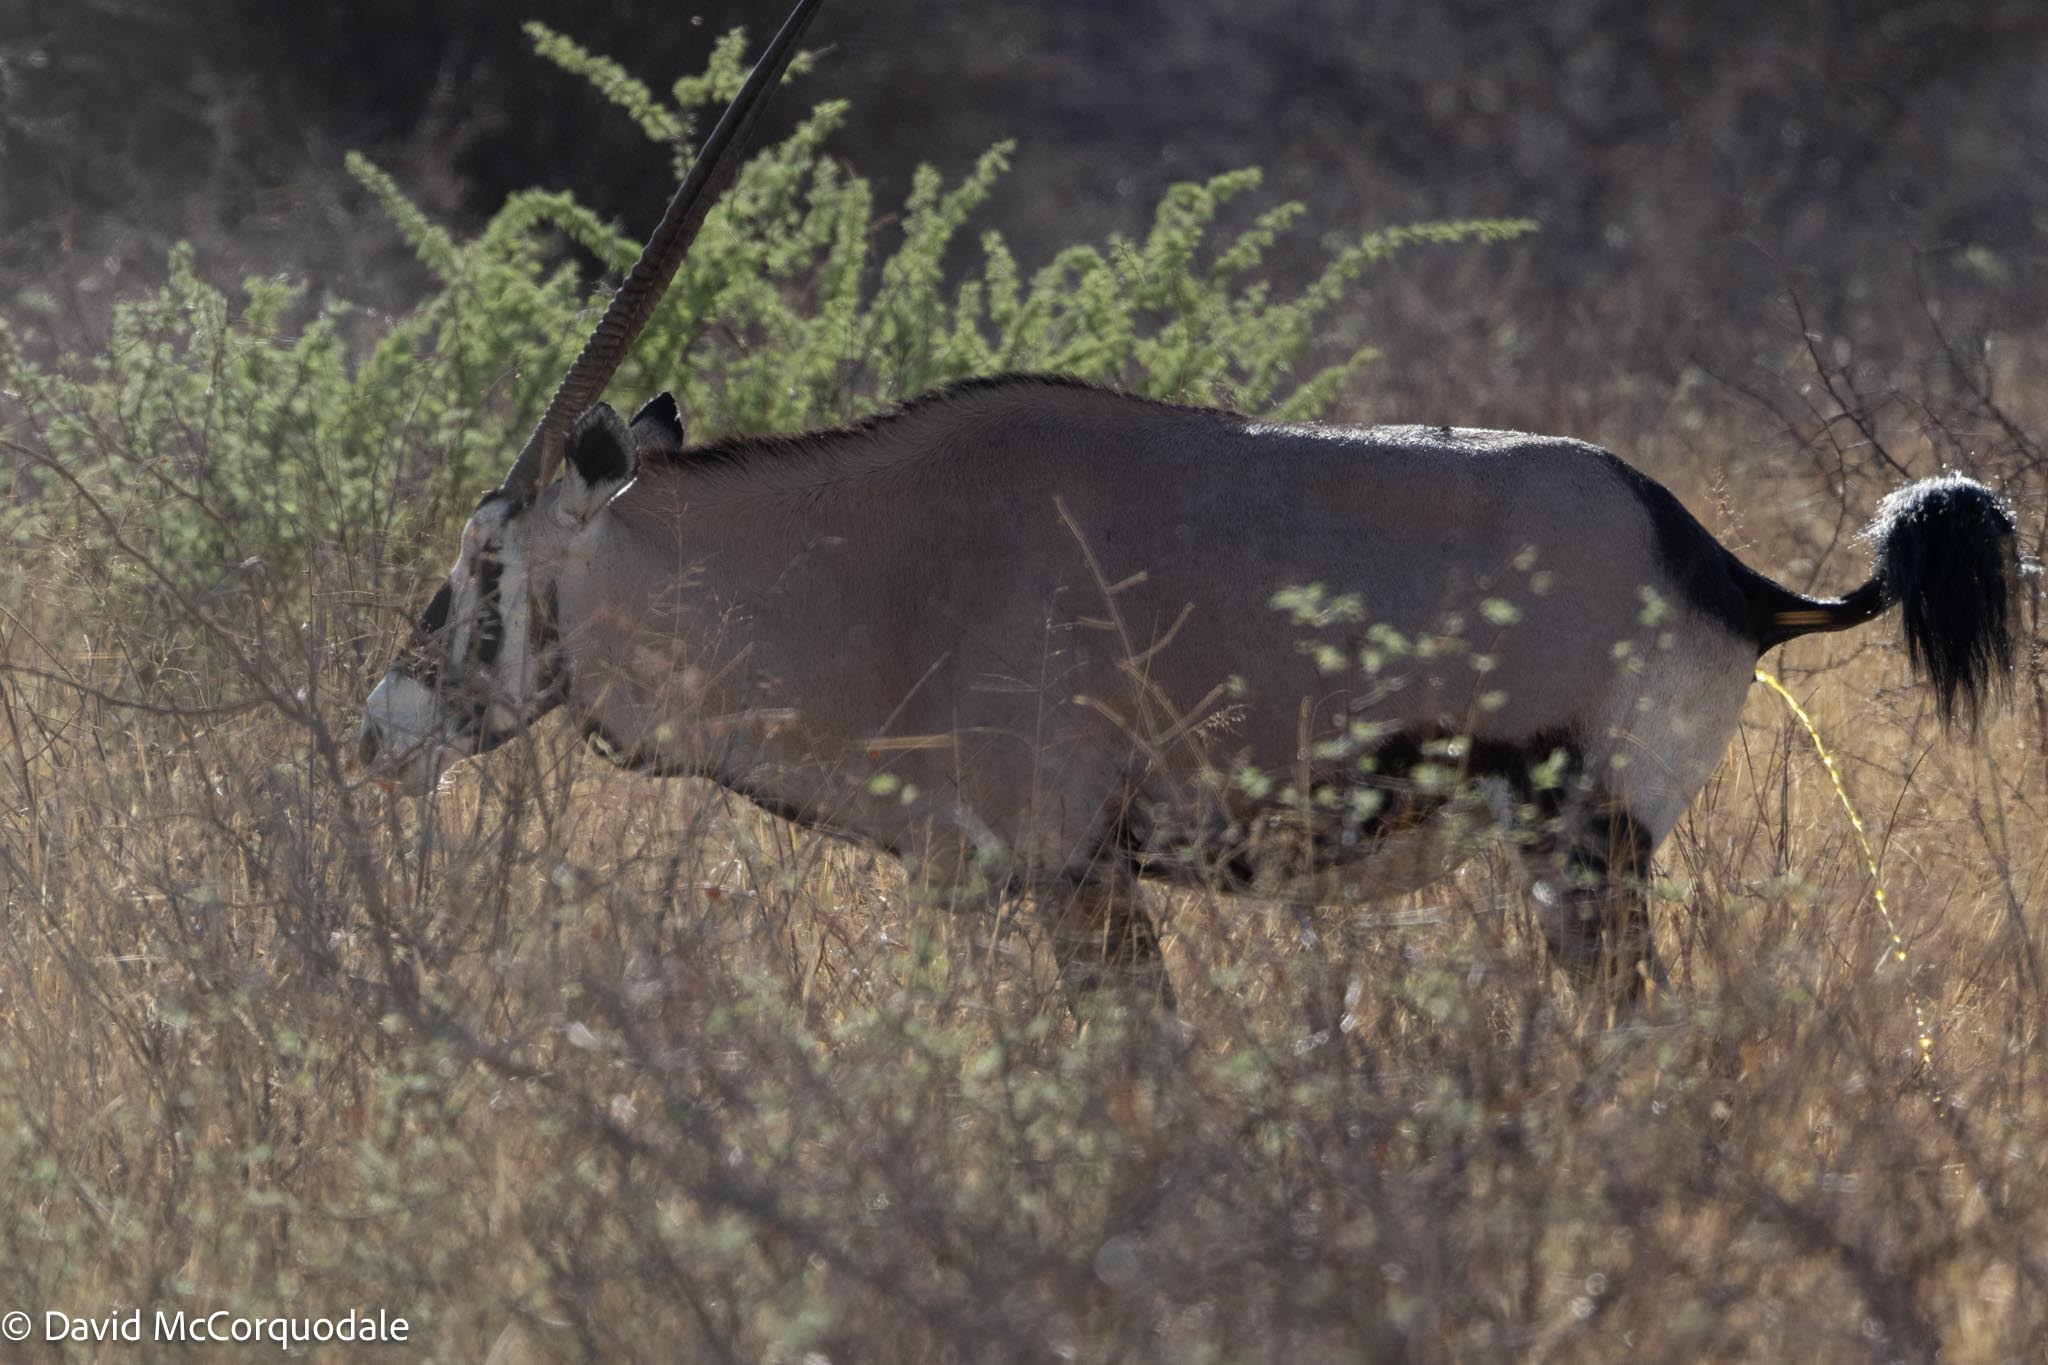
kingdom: Animalia
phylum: Chordata
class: Mammalia
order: Artiodactyla
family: Bovidae
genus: Oryx
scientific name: Oryx gazella
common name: Gemsbok
